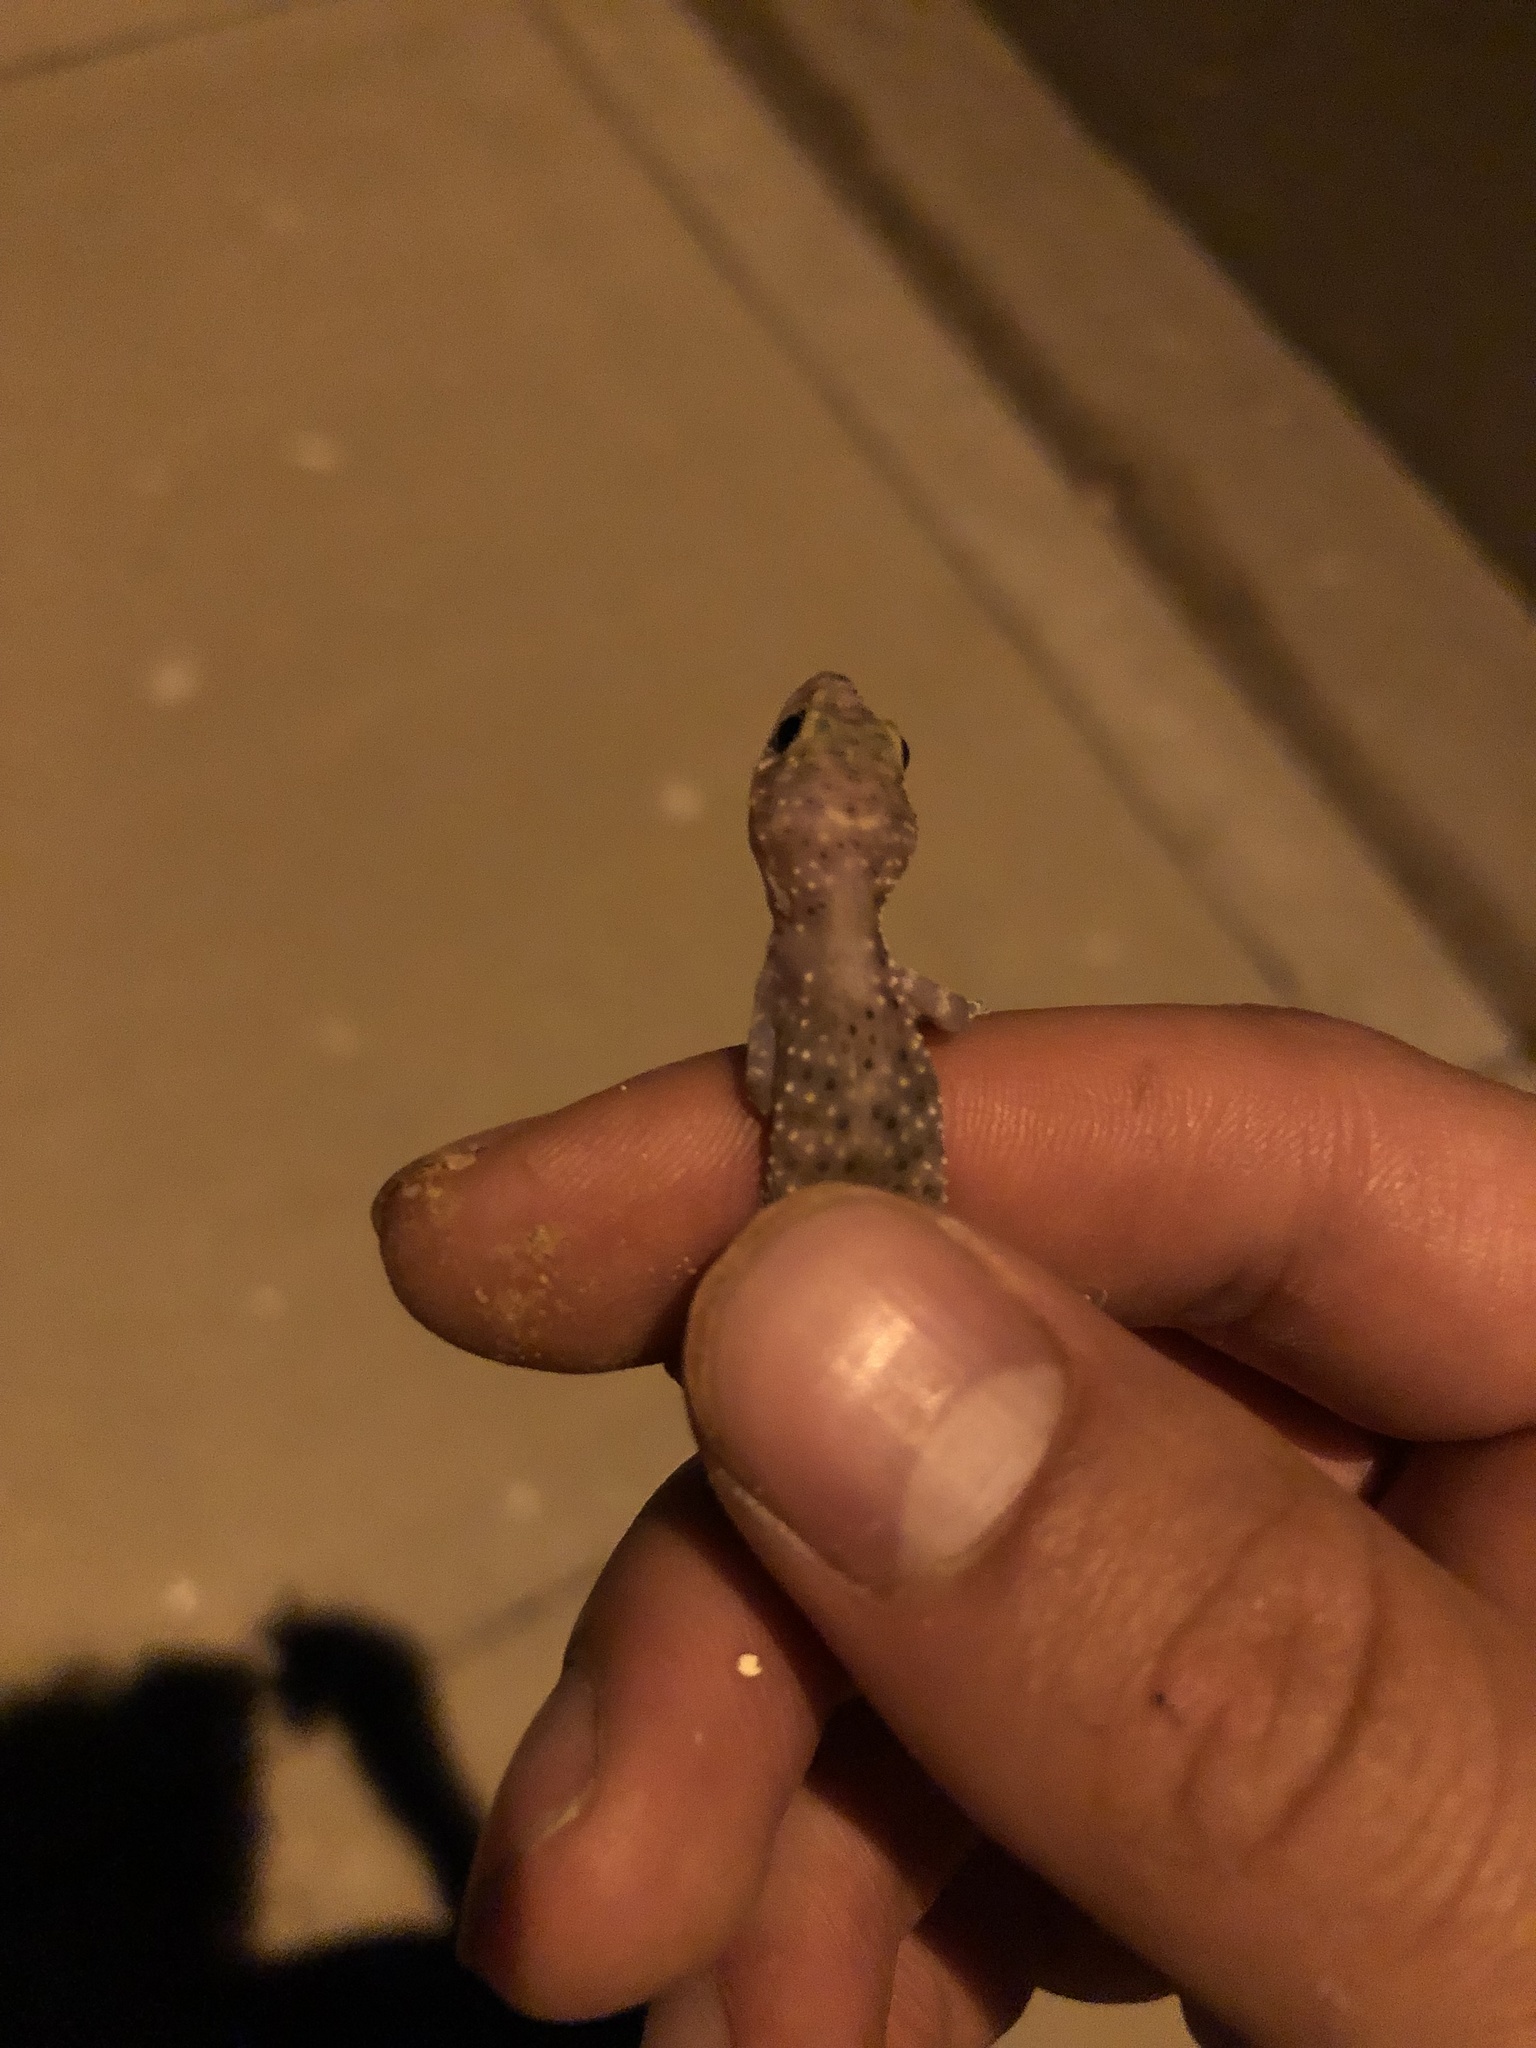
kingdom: Animalia
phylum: Chordata
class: Squamata
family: Gekkonidae
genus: Hemidactylus
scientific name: Hemidactylus turcicus
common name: Turkish gecko
